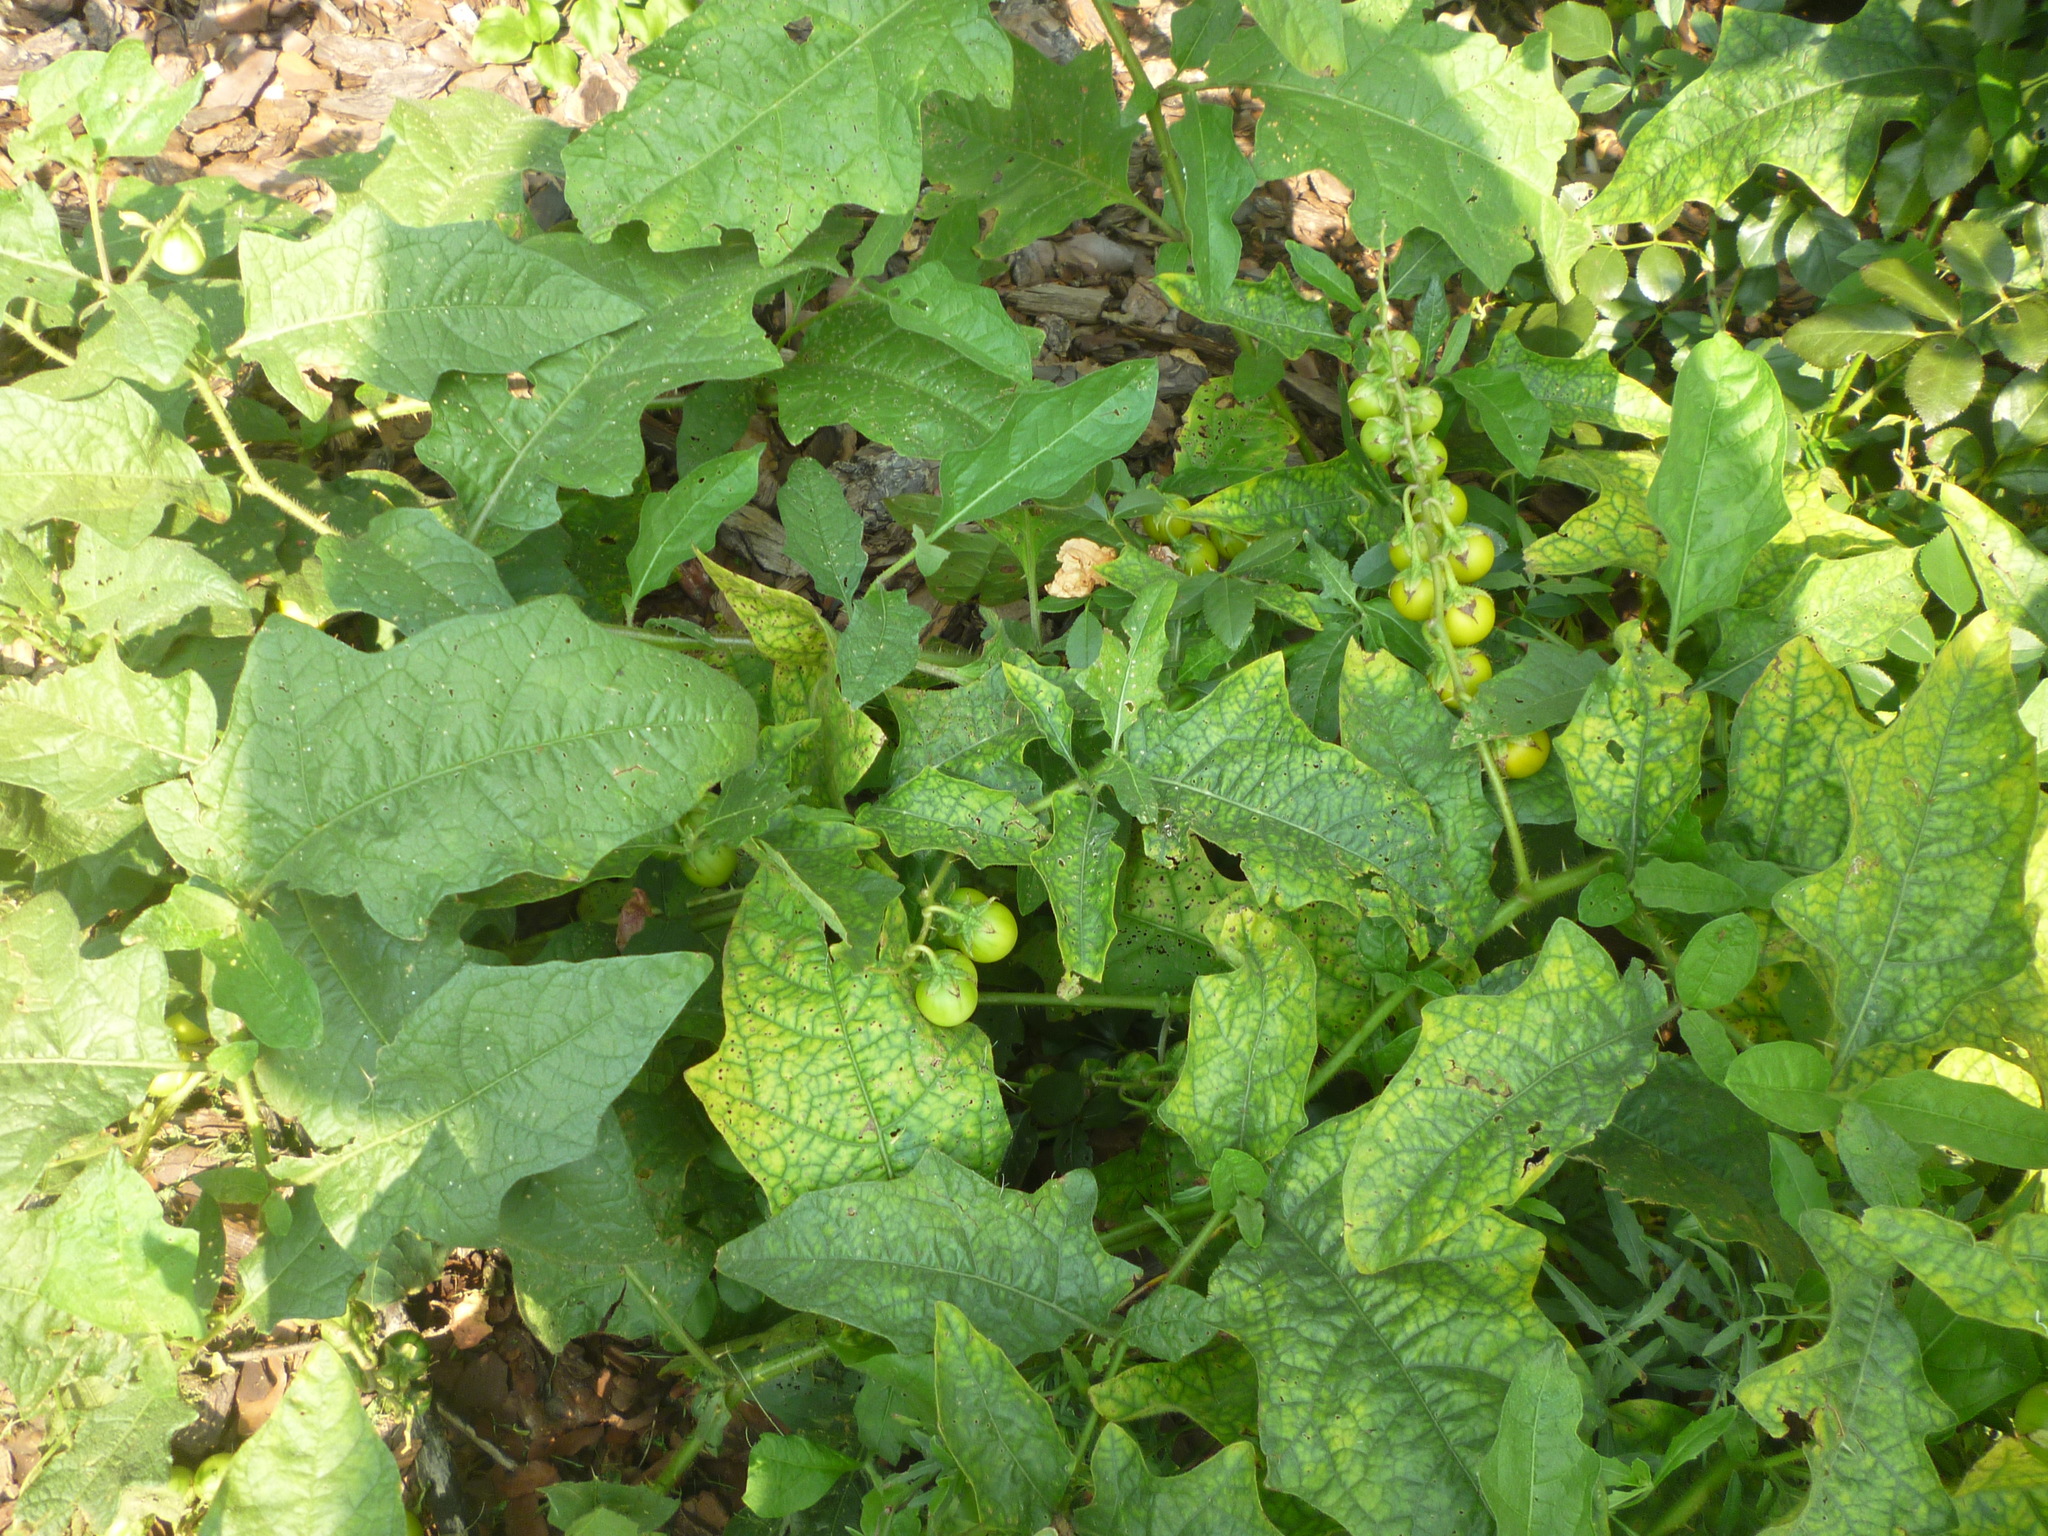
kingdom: Plantae
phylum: Tracheophyta
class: Magnoliopsida
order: Solanales
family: Solanaceae
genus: Solanum
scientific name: Solanum carolinense
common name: Horse-nettle
